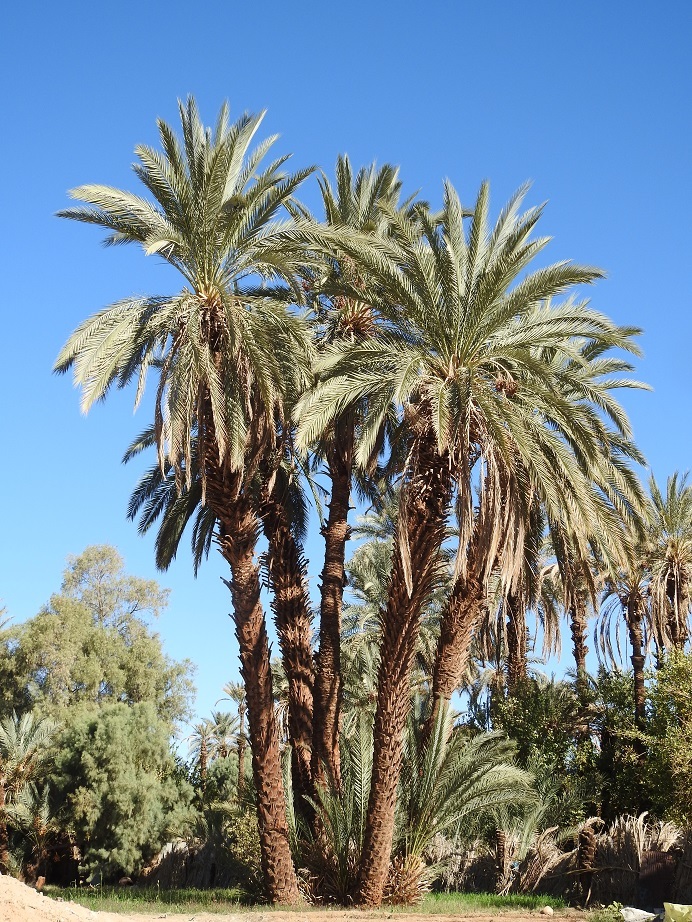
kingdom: Plantae
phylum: Tracheophyta
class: Liliopsida
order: Arecales
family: Arecaceae
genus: Phoenix
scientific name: Phoenix dactylifera
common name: Date palm
